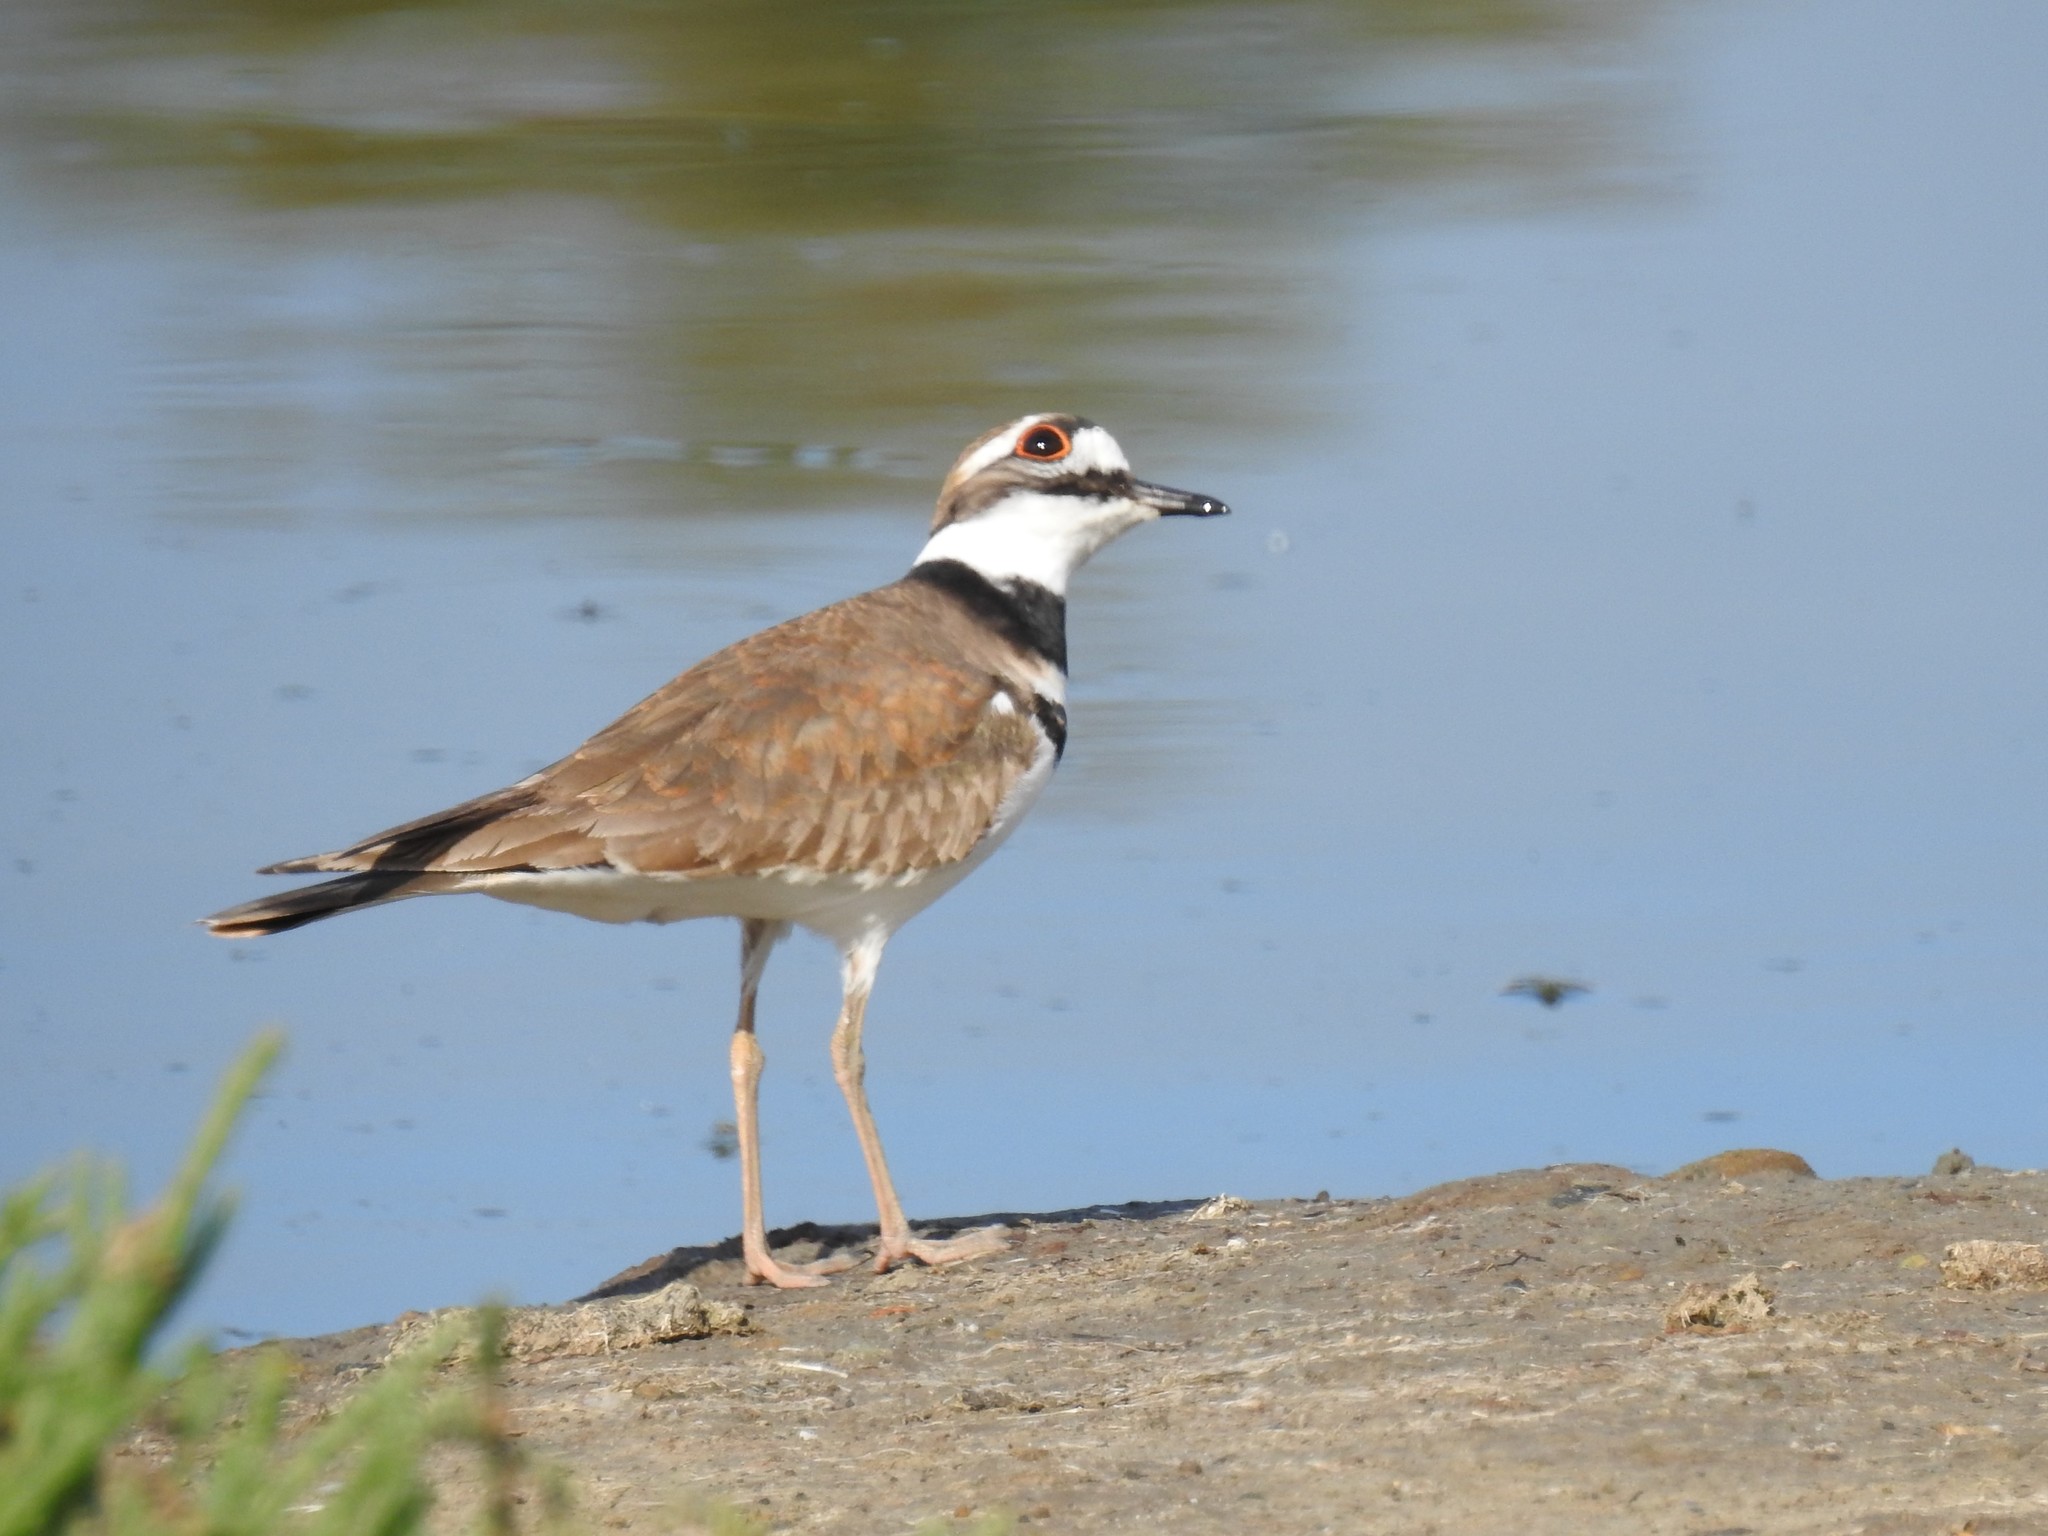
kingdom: Animalia
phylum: Chordata
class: Aves
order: Charadriiformes
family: Charadriidae
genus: Charadrius
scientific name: Charadrius vociferus
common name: Killdeer
